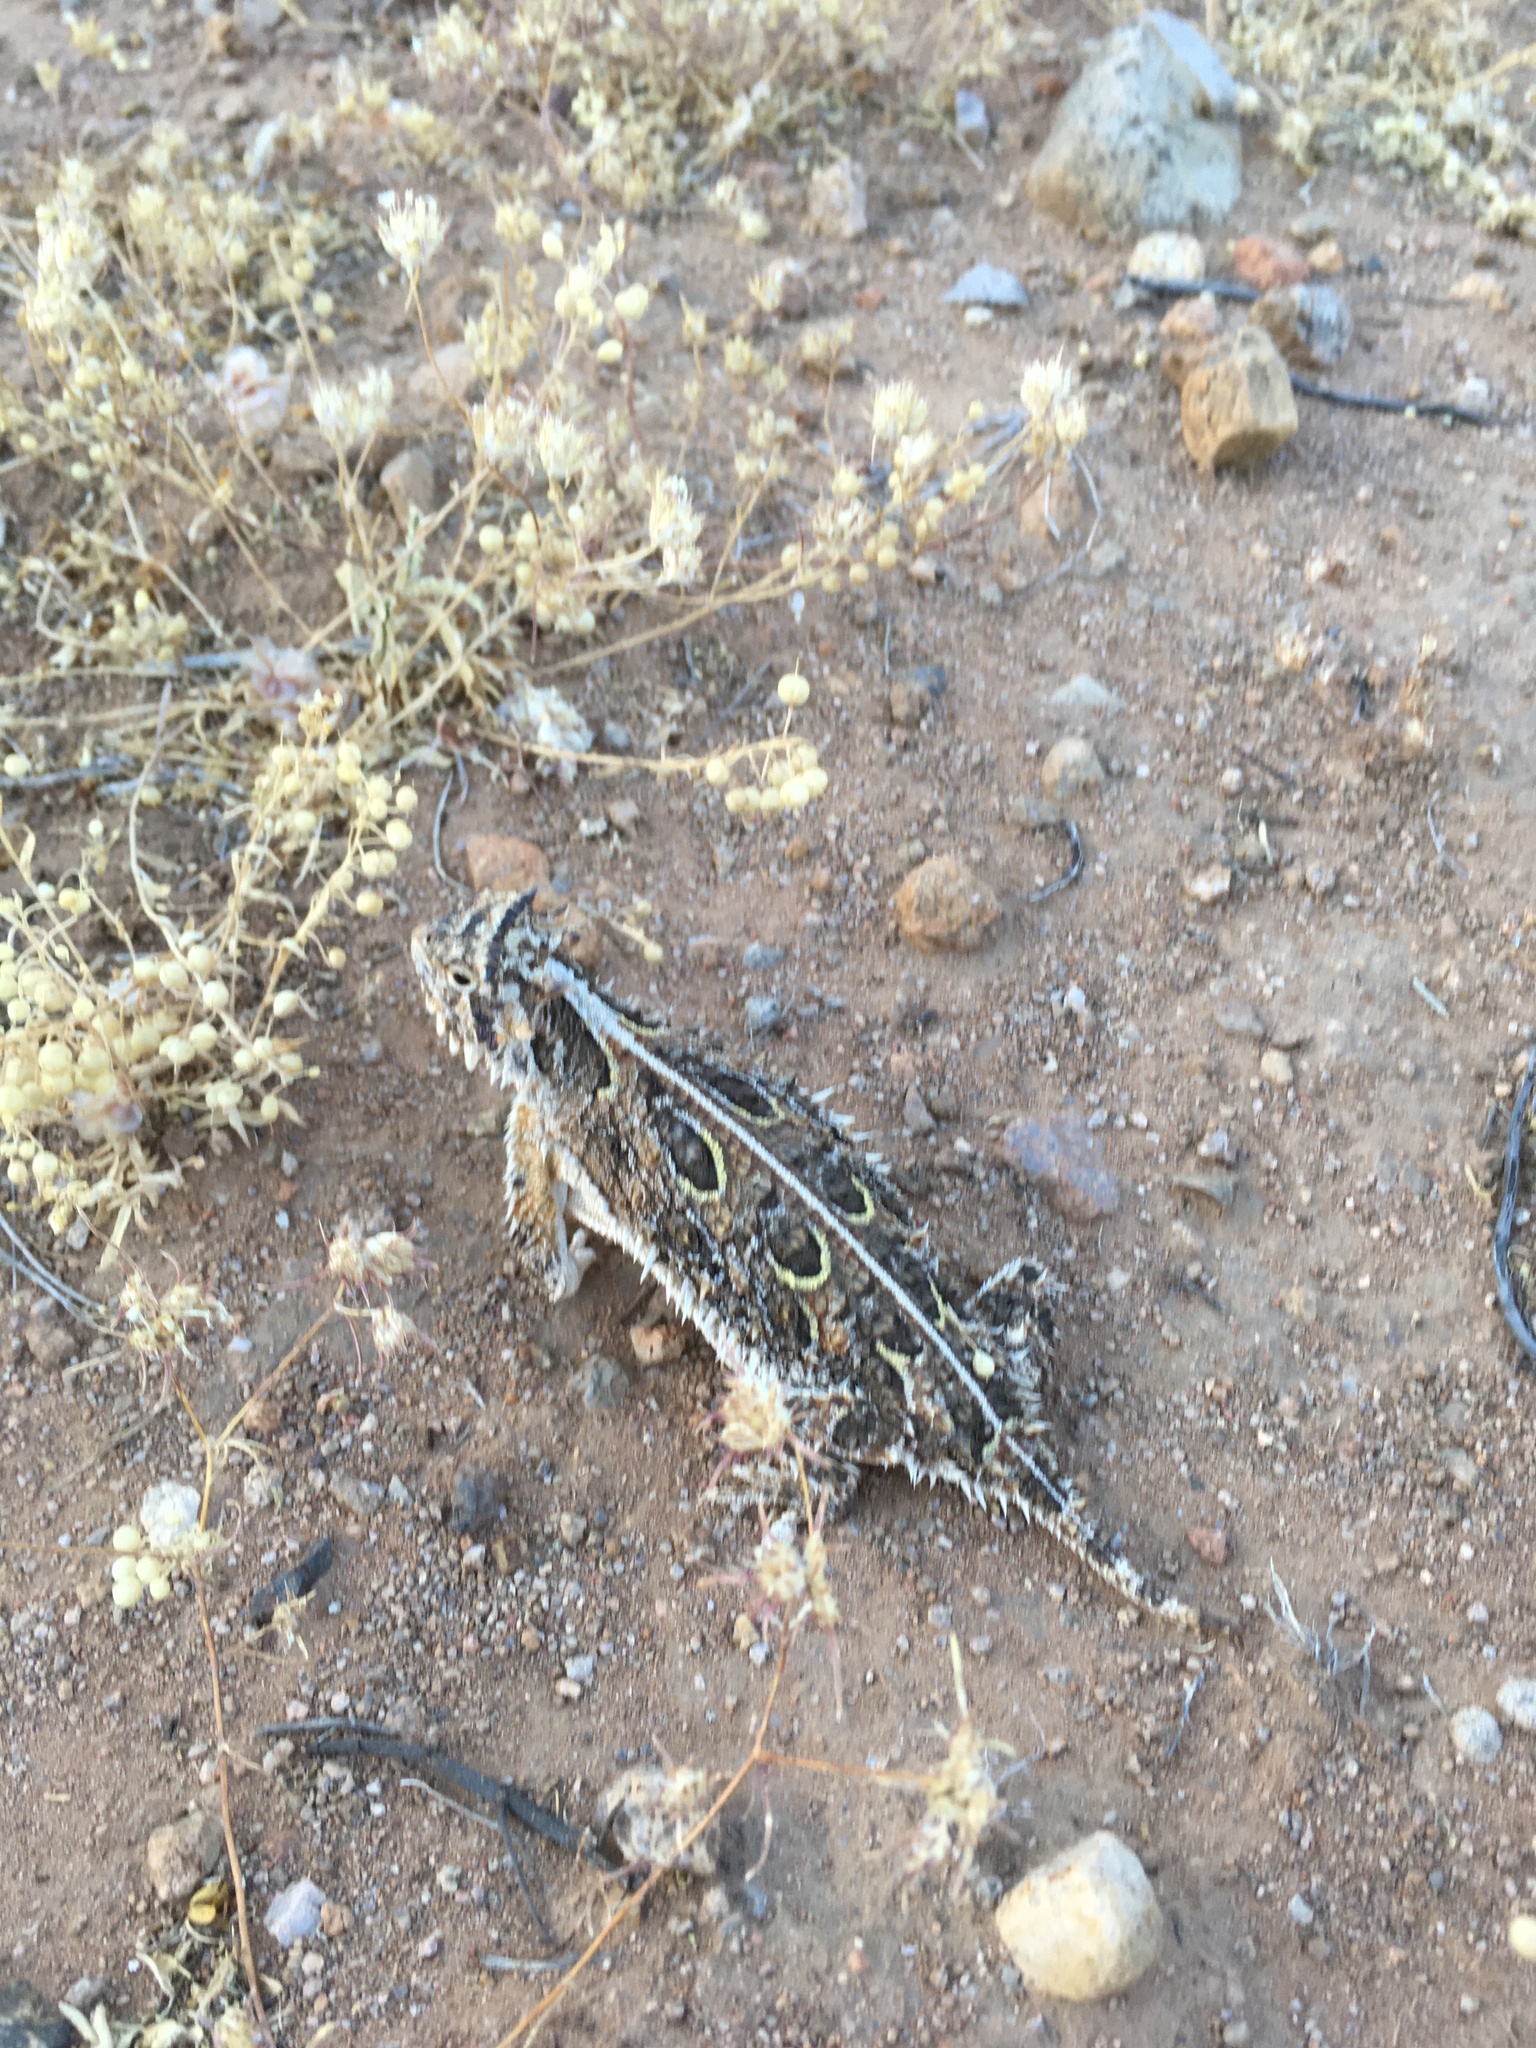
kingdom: Animalia
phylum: Chordata
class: Squamata
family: Phrynosomatidae
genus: Phrynosoma
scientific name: Phrynosoma cornutum
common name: Texas horned lizard
